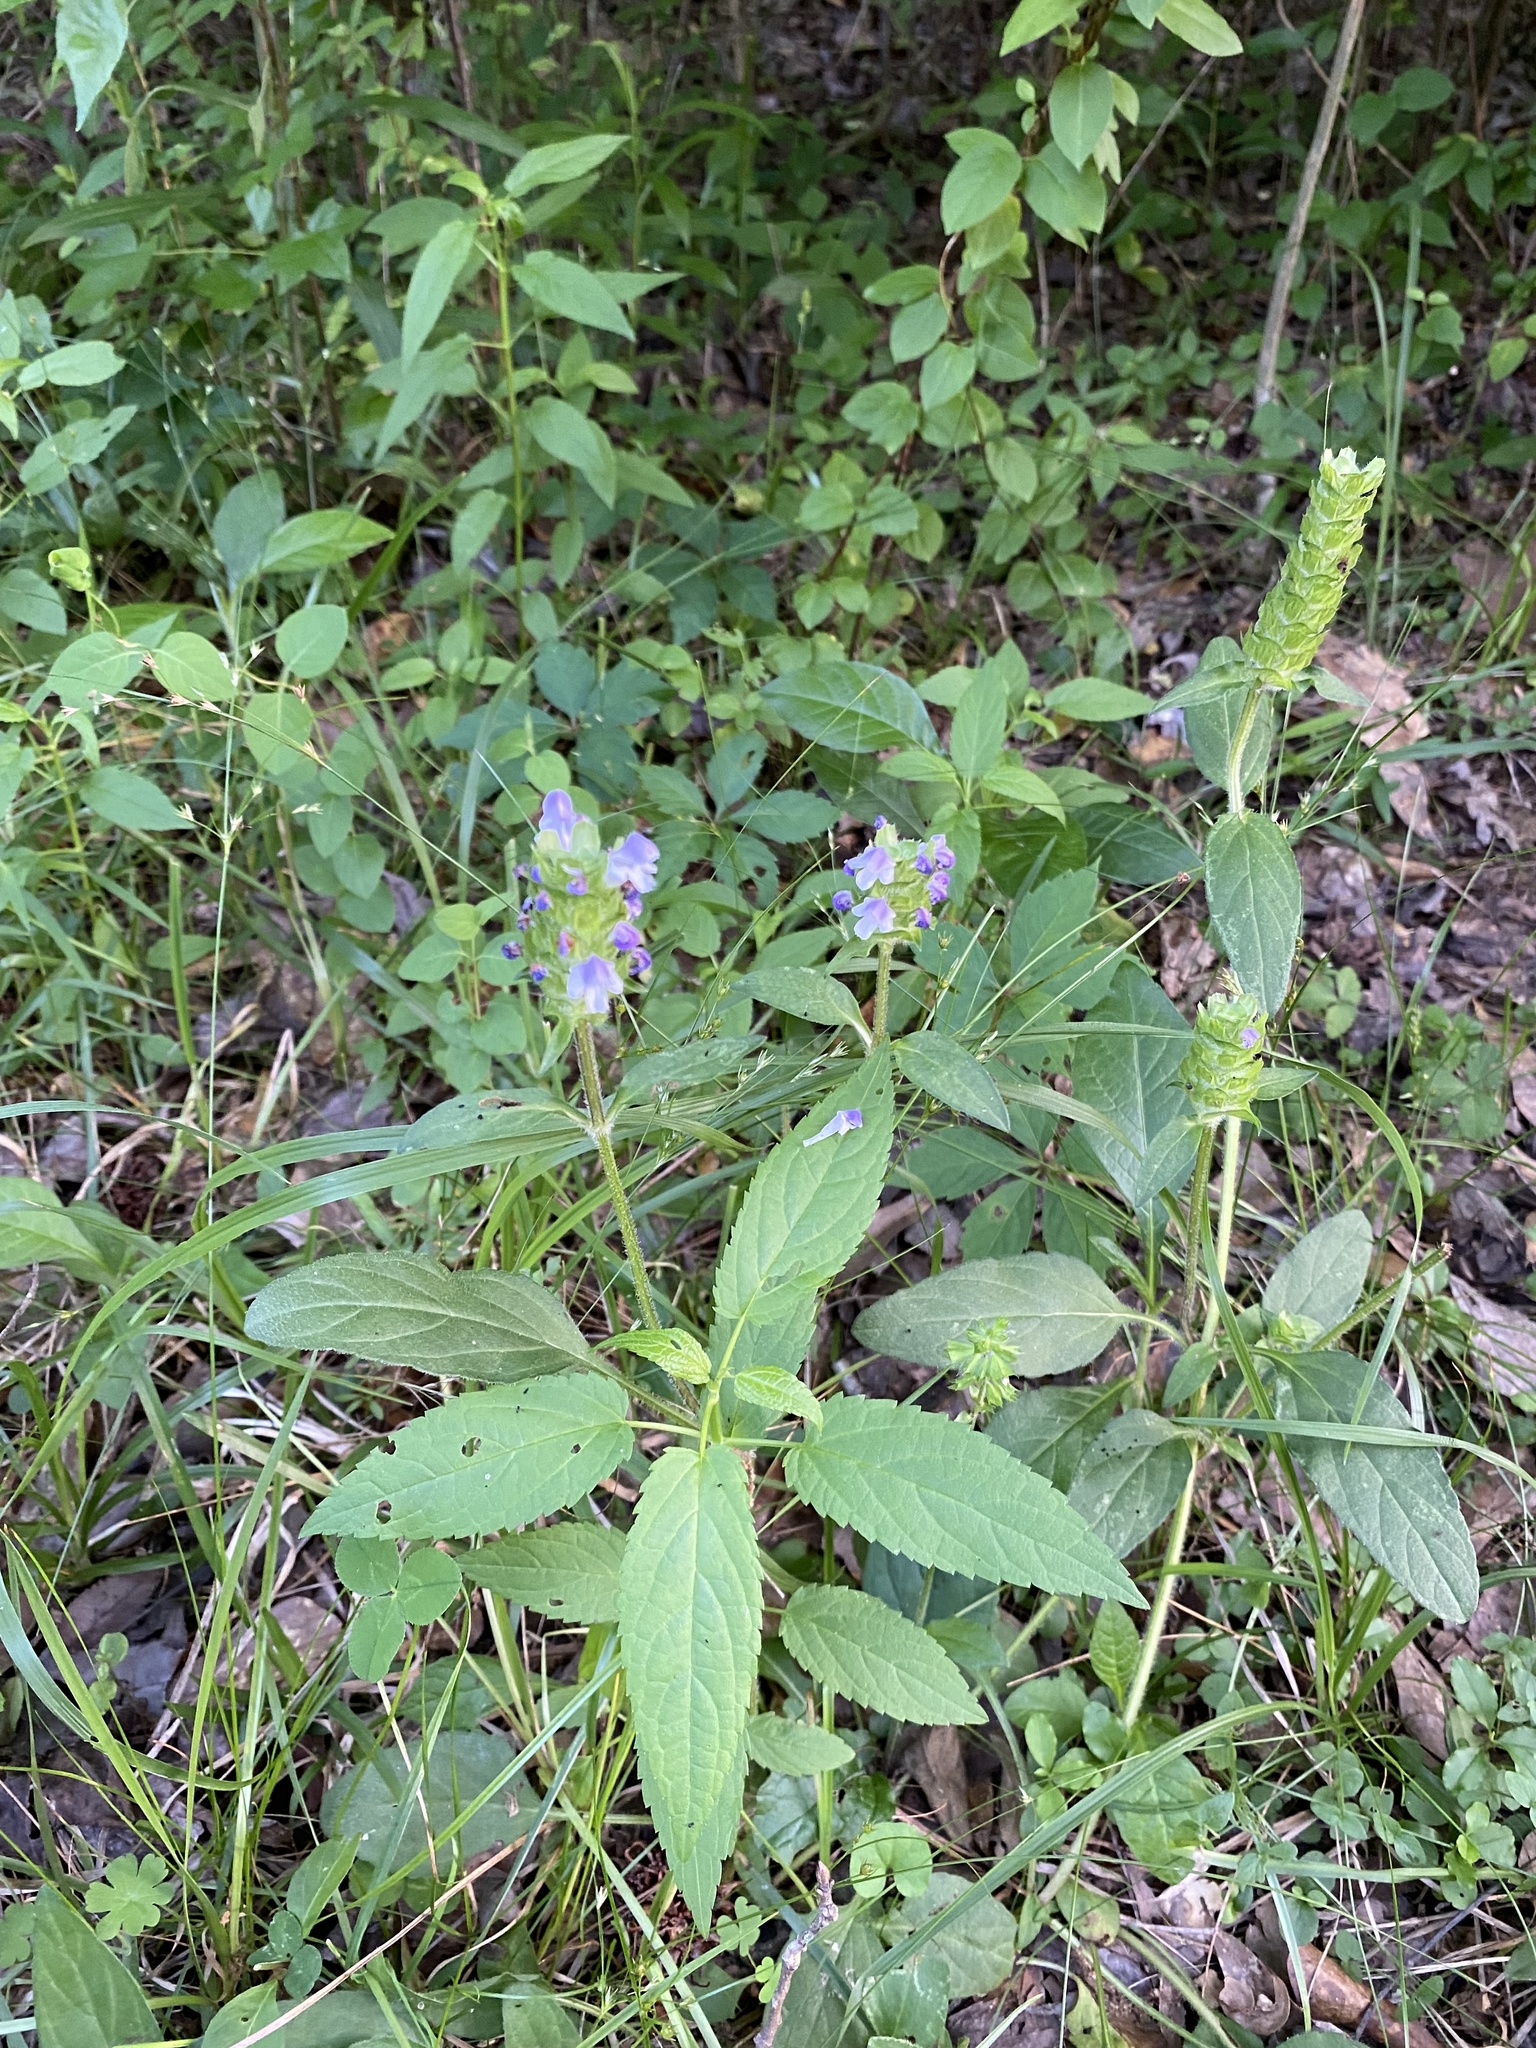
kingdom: Plantae
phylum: Tracheophyta
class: Magnoliopsida
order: Lamiales
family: Lamiaceae
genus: Prunella
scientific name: Prunella vulgaris
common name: Heal-all
